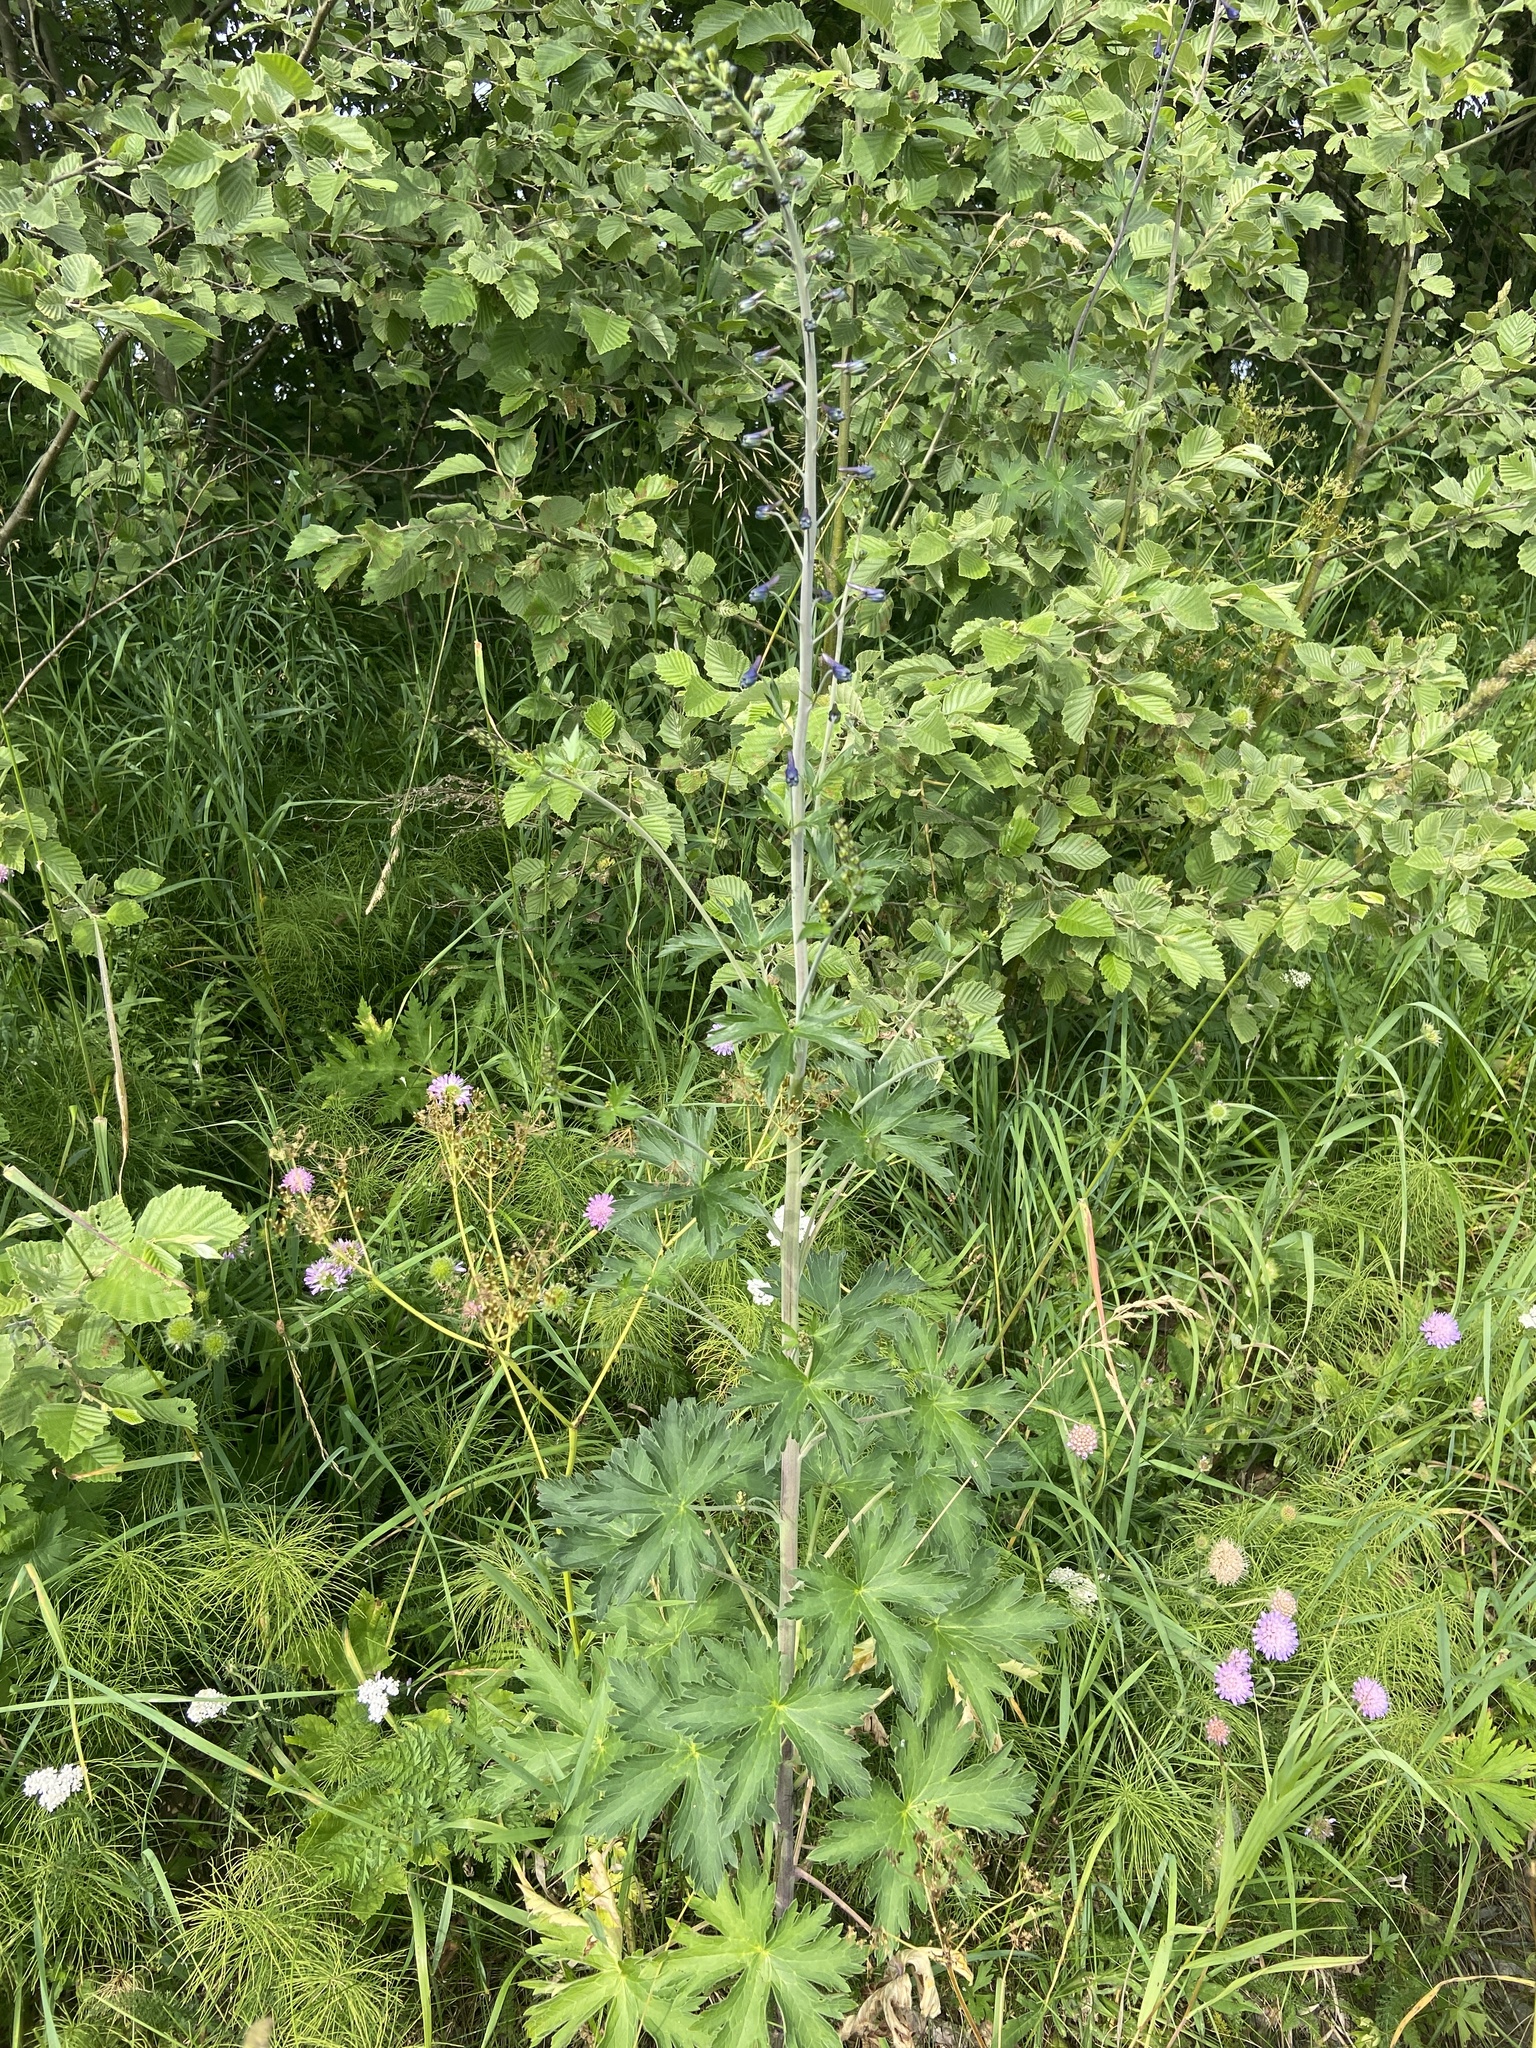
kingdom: Plantae
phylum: Tracheophyta
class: Magnoliopsida
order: Ranunculales
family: Ranunculaceae
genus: Delphinium
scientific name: Delphinium elatum
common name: Candle larkspur
